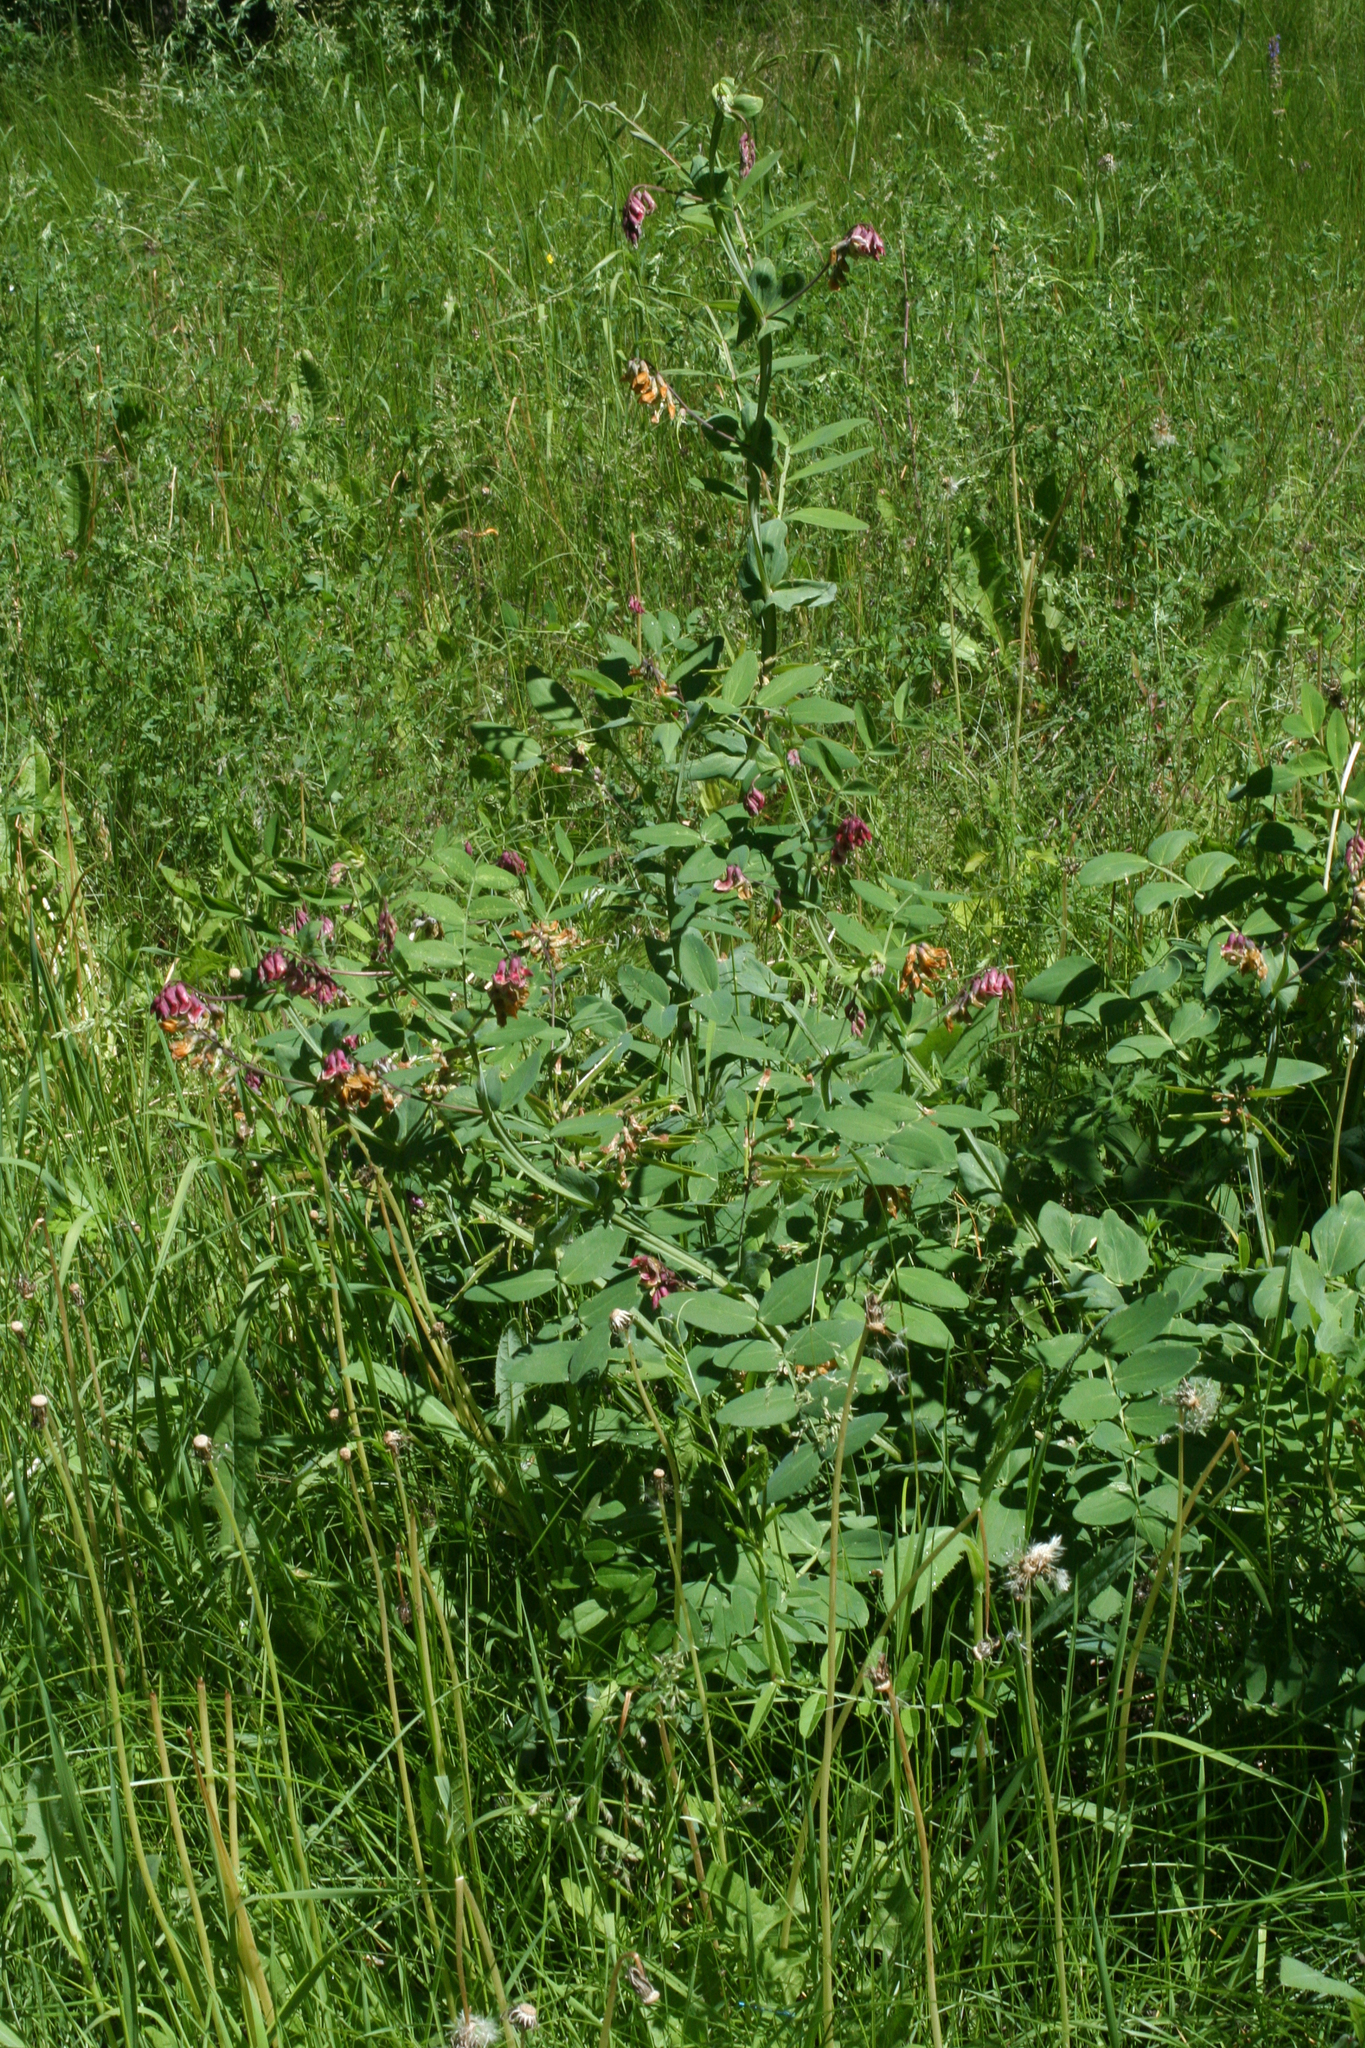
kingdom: Plantae
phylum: Tracheophyta
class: Magnoliopsida
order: Fabales
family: Fabaceae
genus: Lathyrus
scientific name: Lathyrus pisiformis
